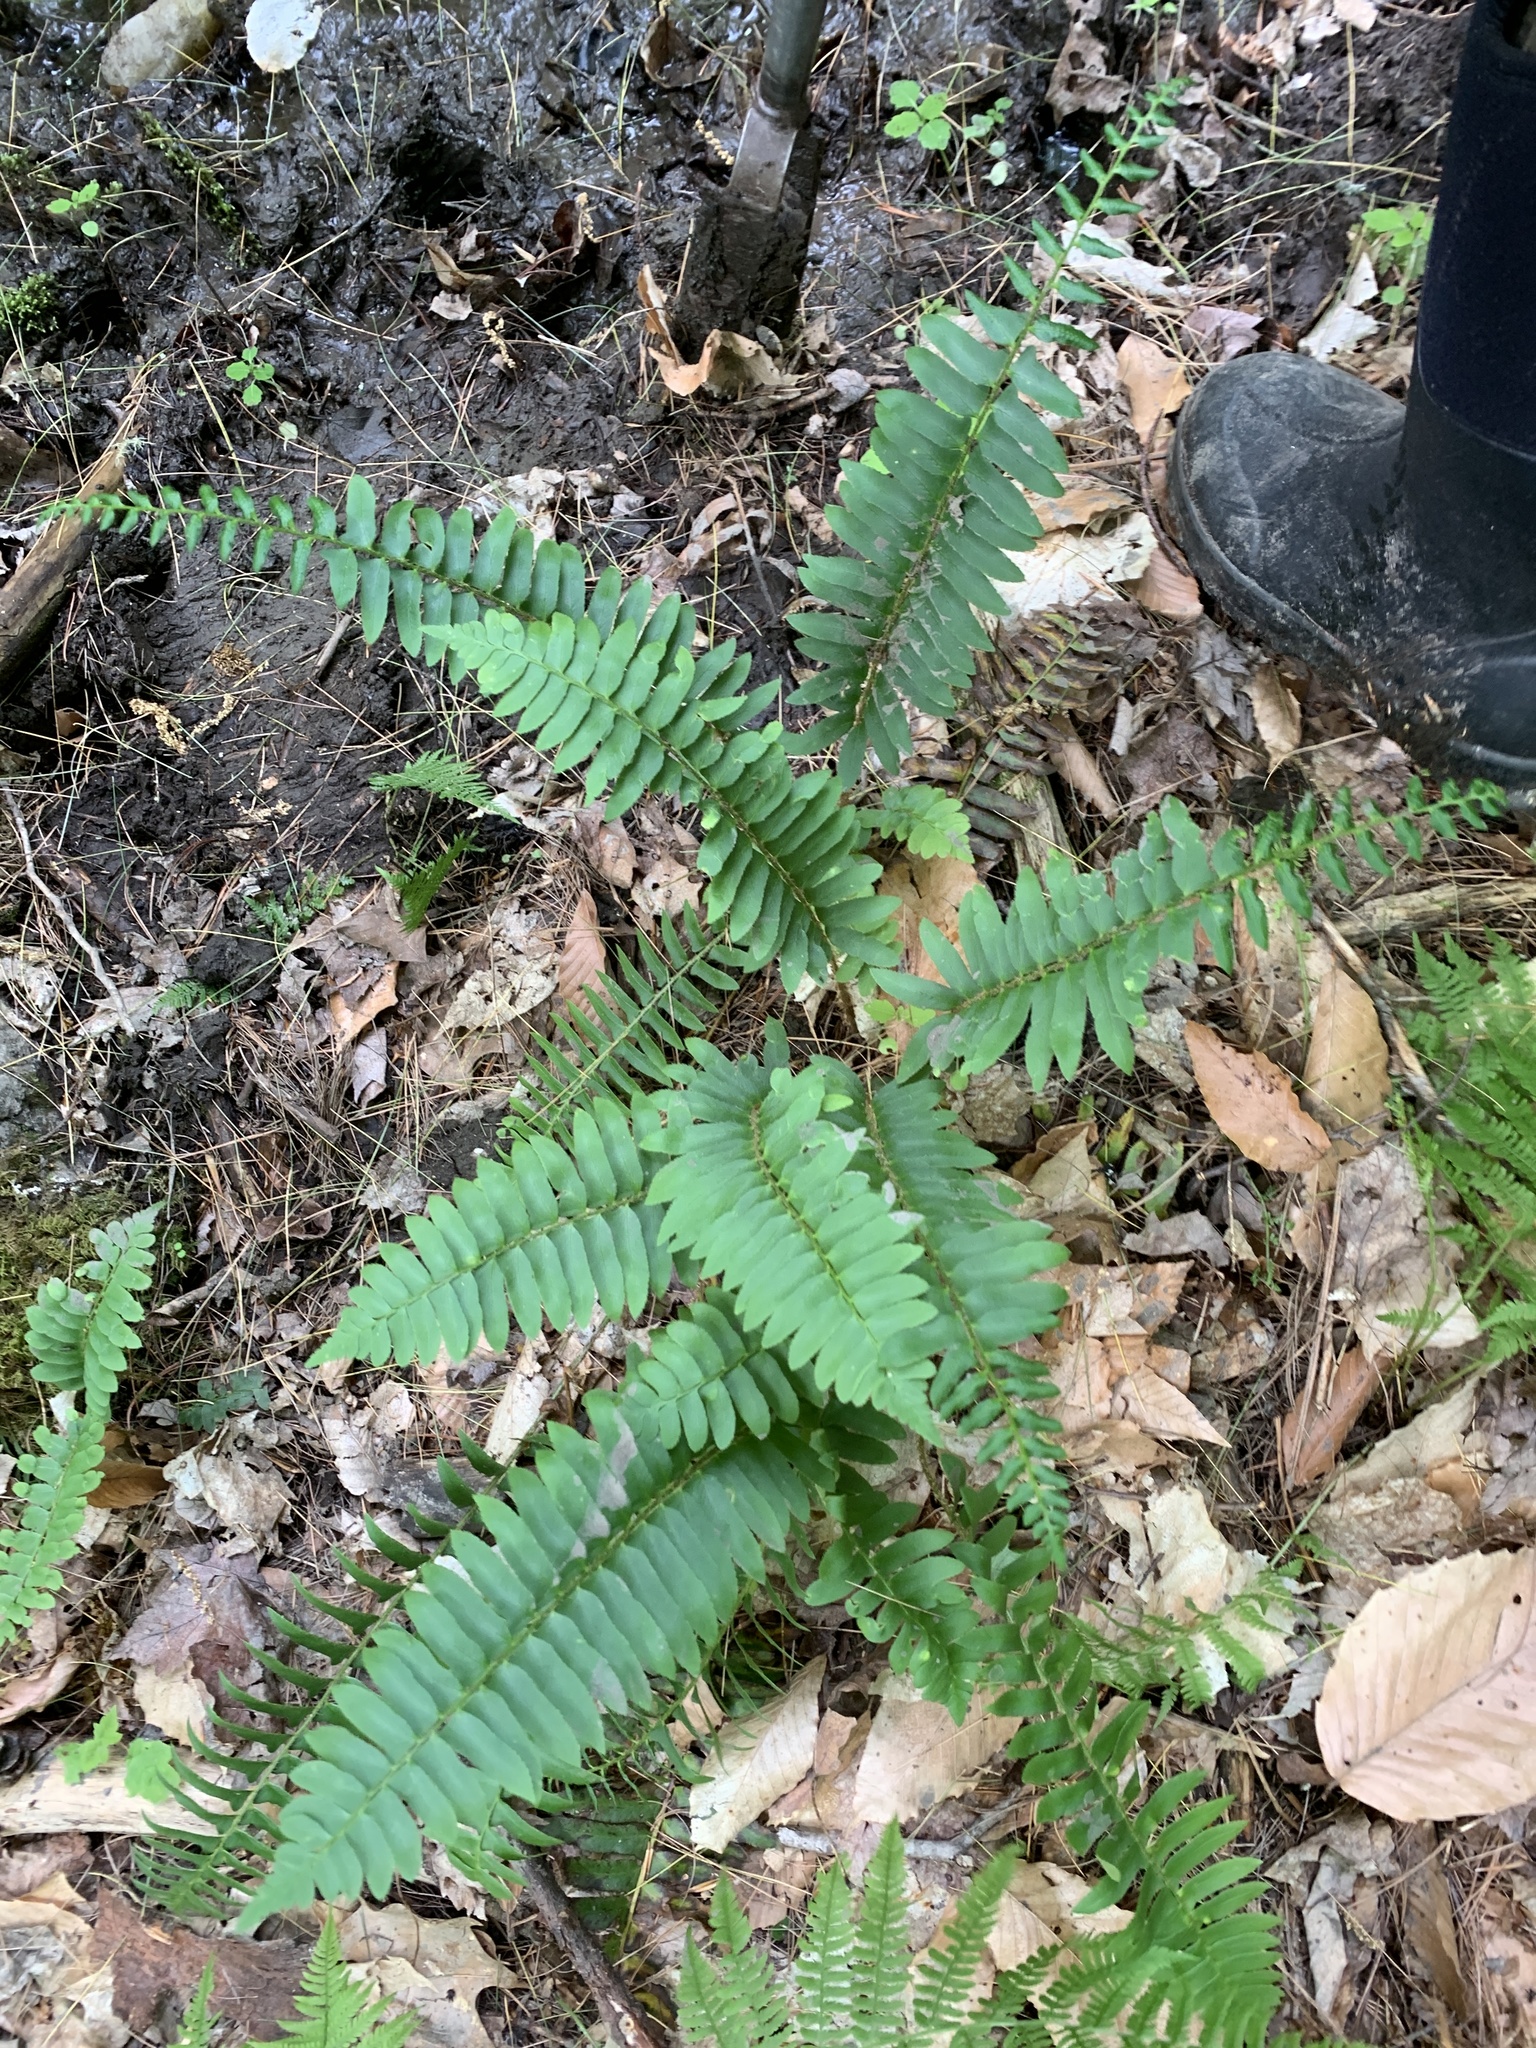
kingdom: Plantae
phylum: Tracheophyta
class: Polypodiopsida
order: Polypodiales
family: Dryopteridaceae
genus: Polystichum
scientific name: Polystichum acrostichoides
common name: Christmas fern
